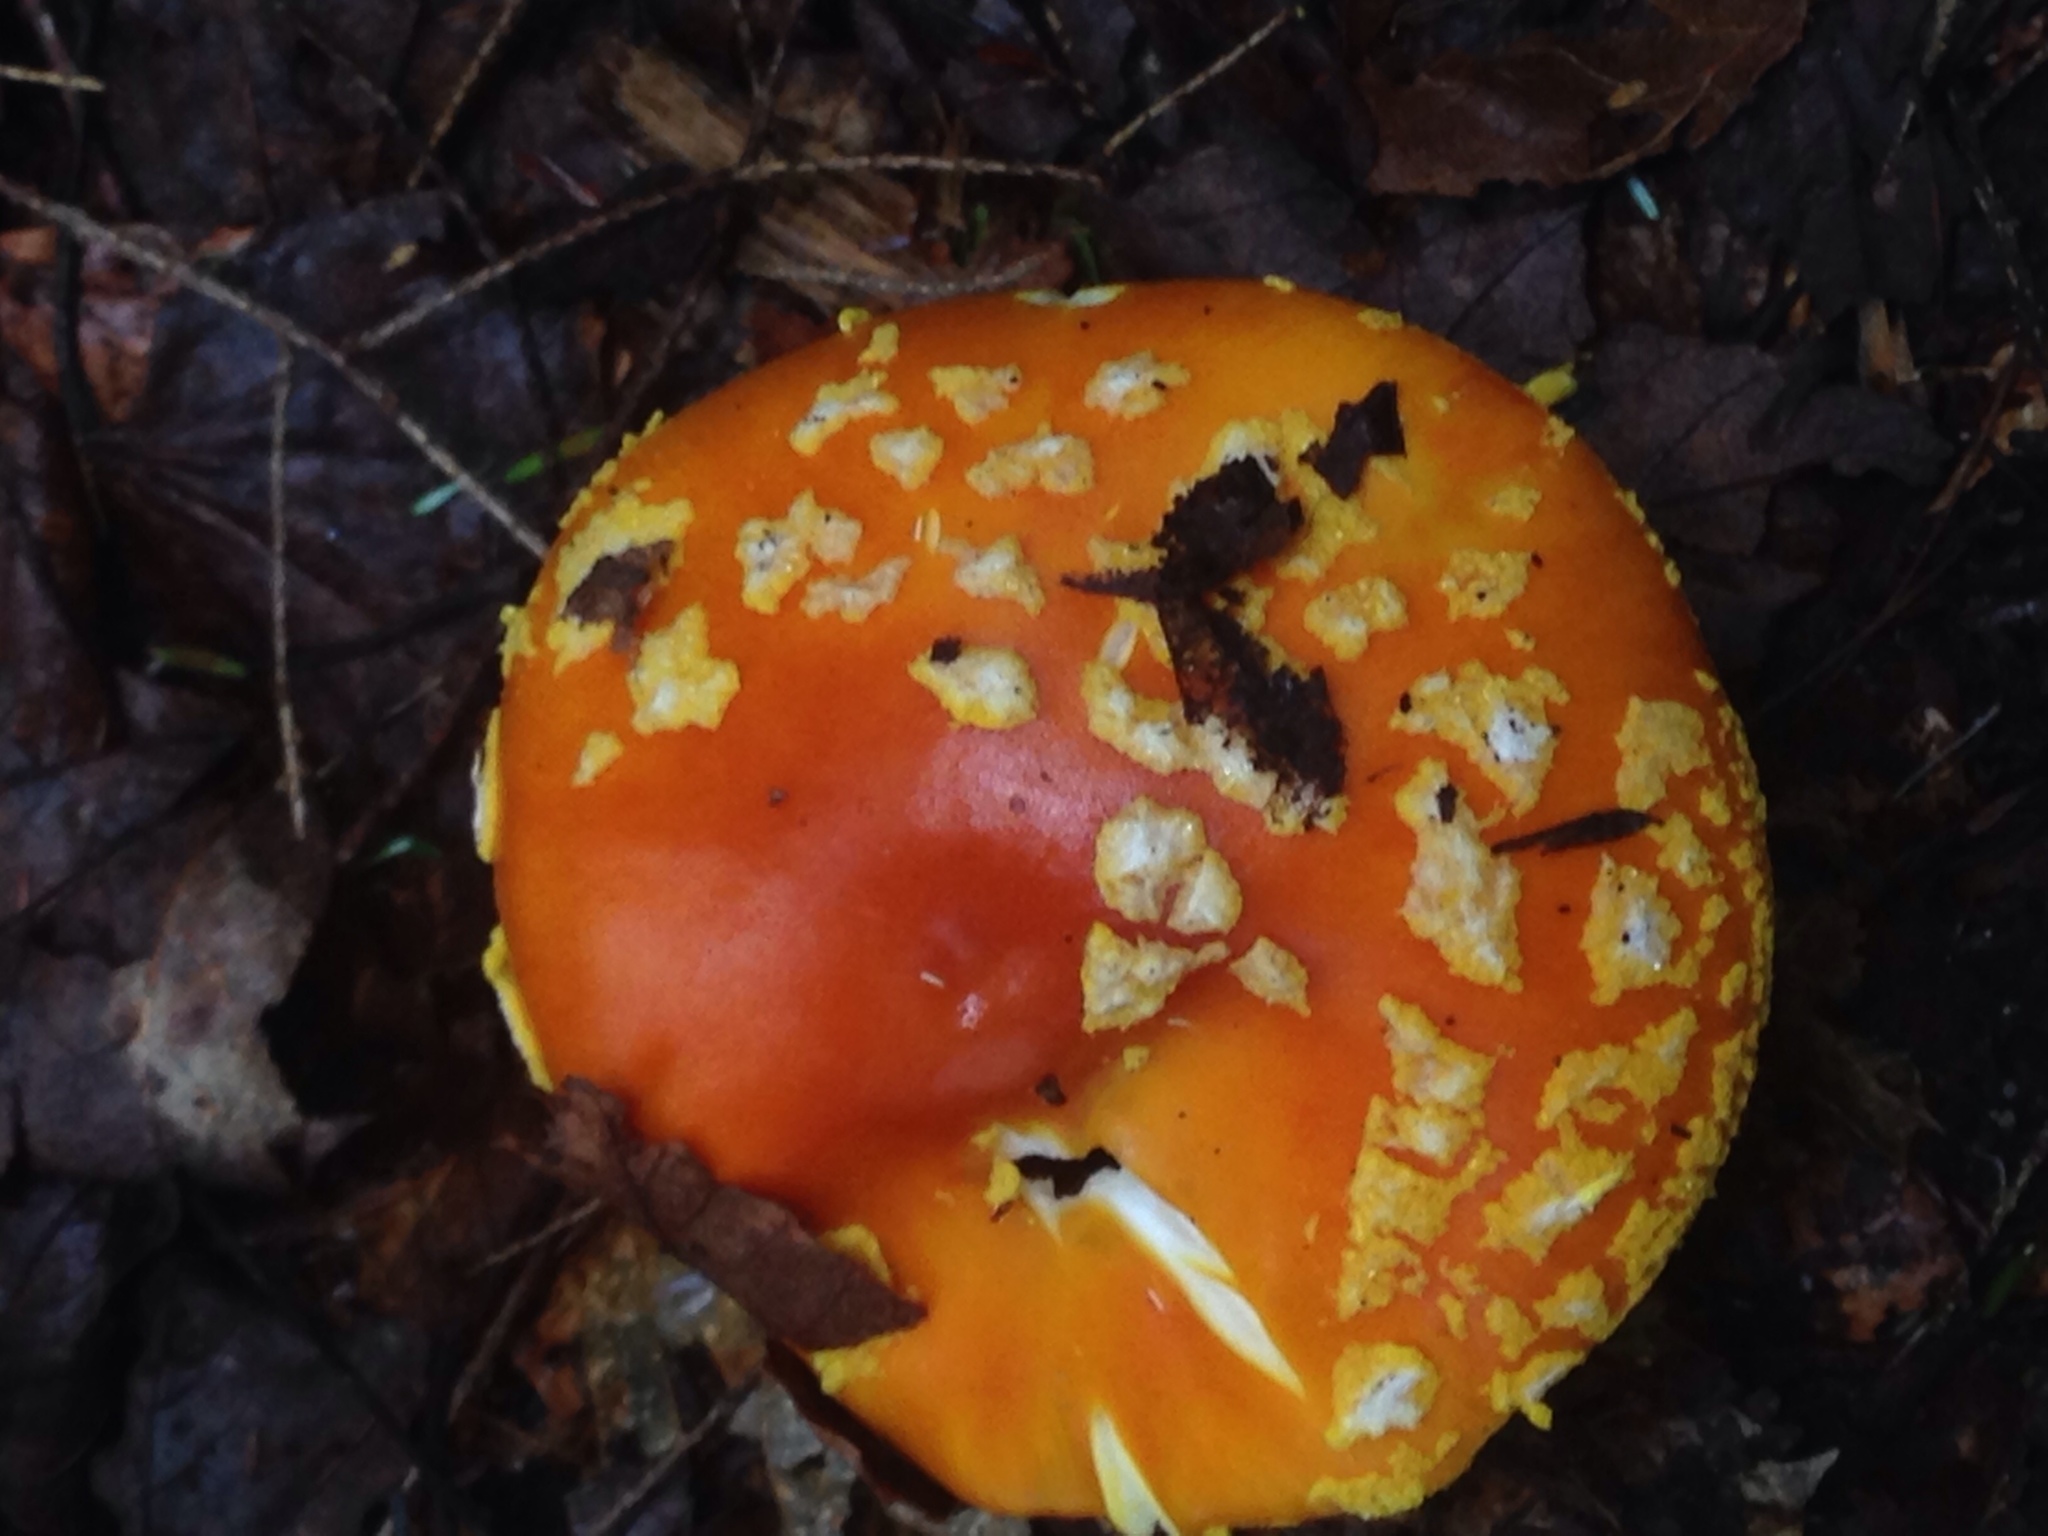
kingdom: Fungi
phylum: Basidiomycota
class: Agaricomycetes
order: Agaricales
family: Amanitaceae
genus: Amanita
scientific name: Amanita muscaria
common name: Fly agaric
